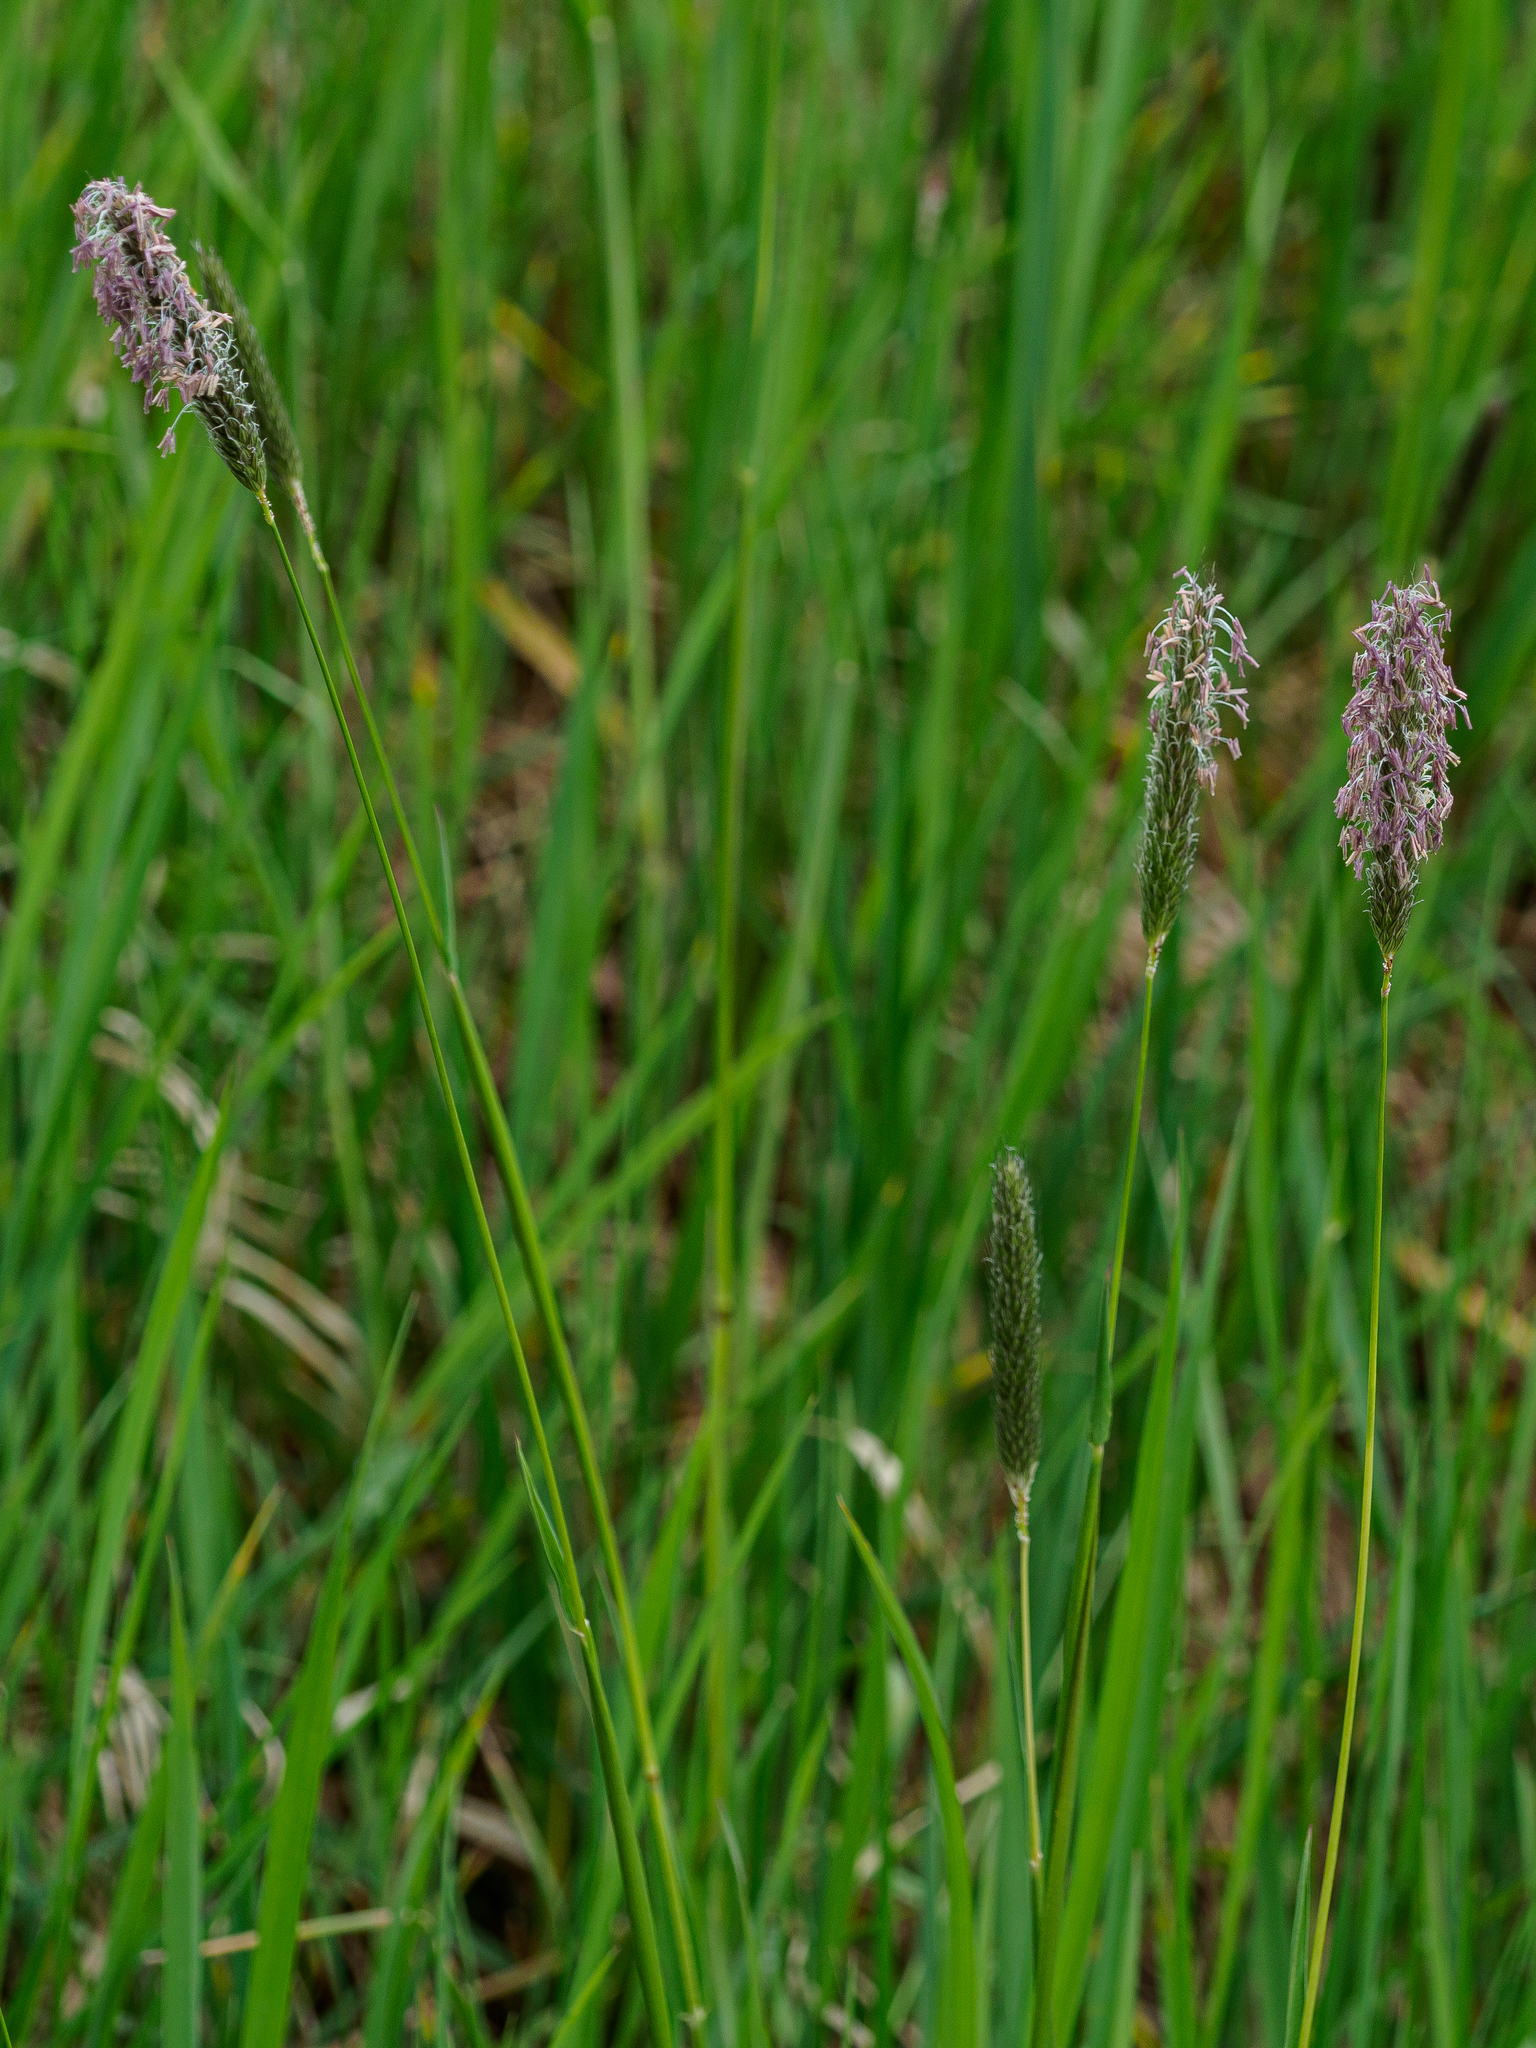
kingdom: Plantae
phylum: Tracheophyta
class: Liliopsida
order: Poales
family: Poaceae
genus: Alopecurus
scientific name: Alopecurus pratensis
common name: Meadow foxtail
